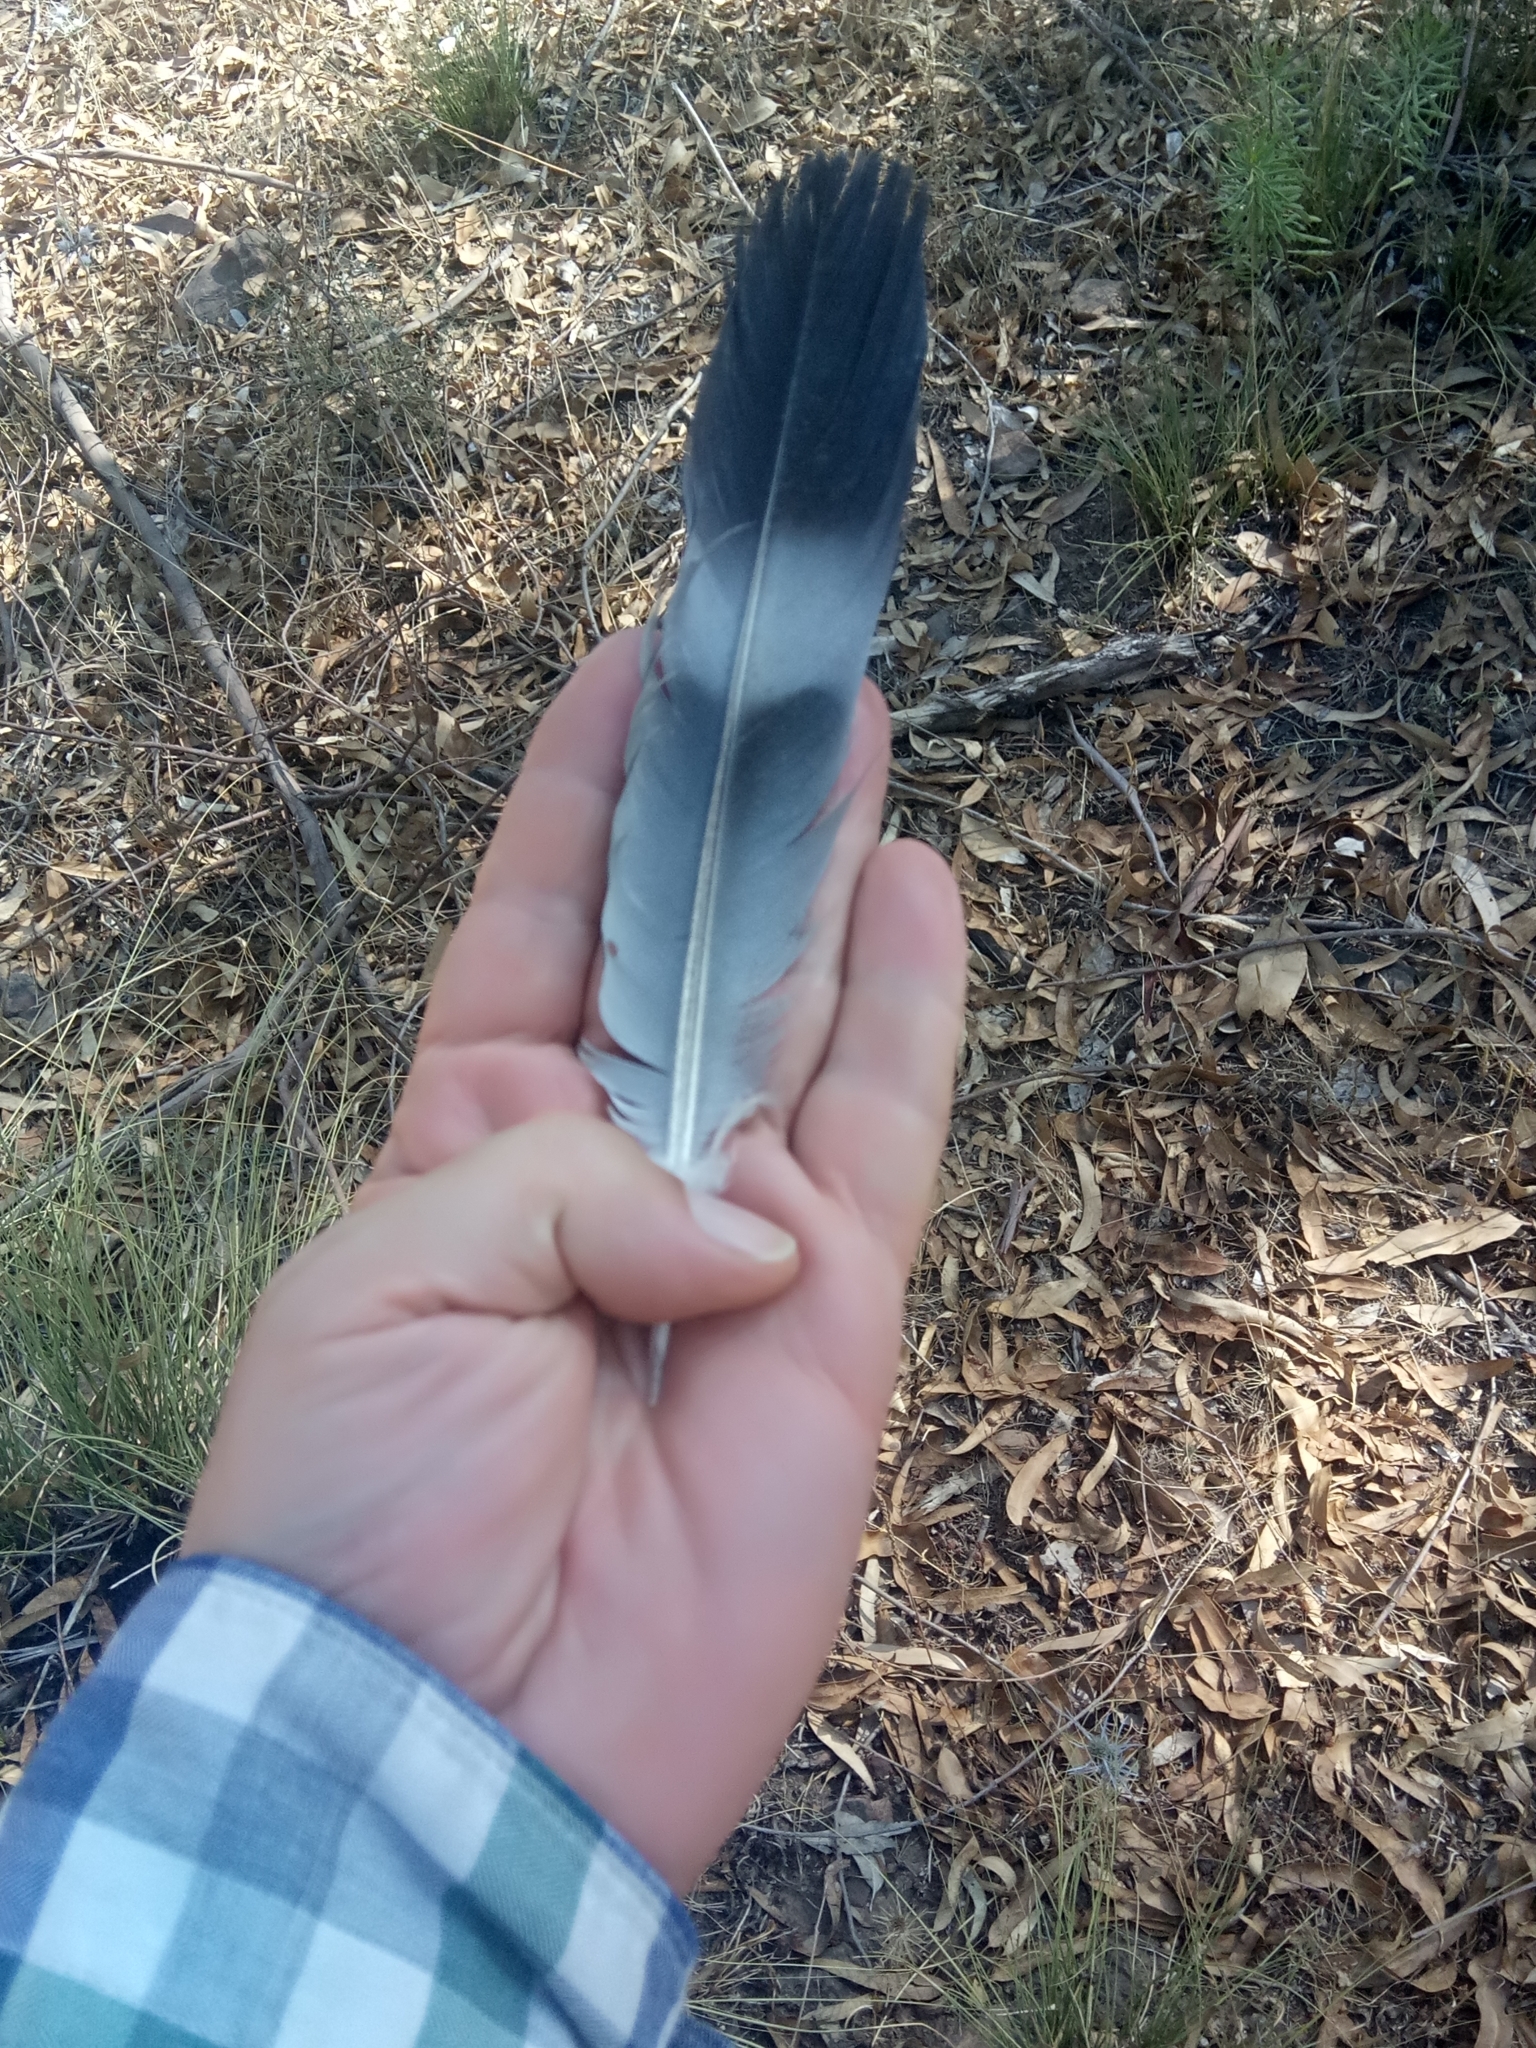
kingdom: Animalia
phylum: Chordata
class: Aves
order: Columbiformes
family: Columbidae
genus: Columba
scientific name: Columba palumbus
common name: Common wood pigeon
